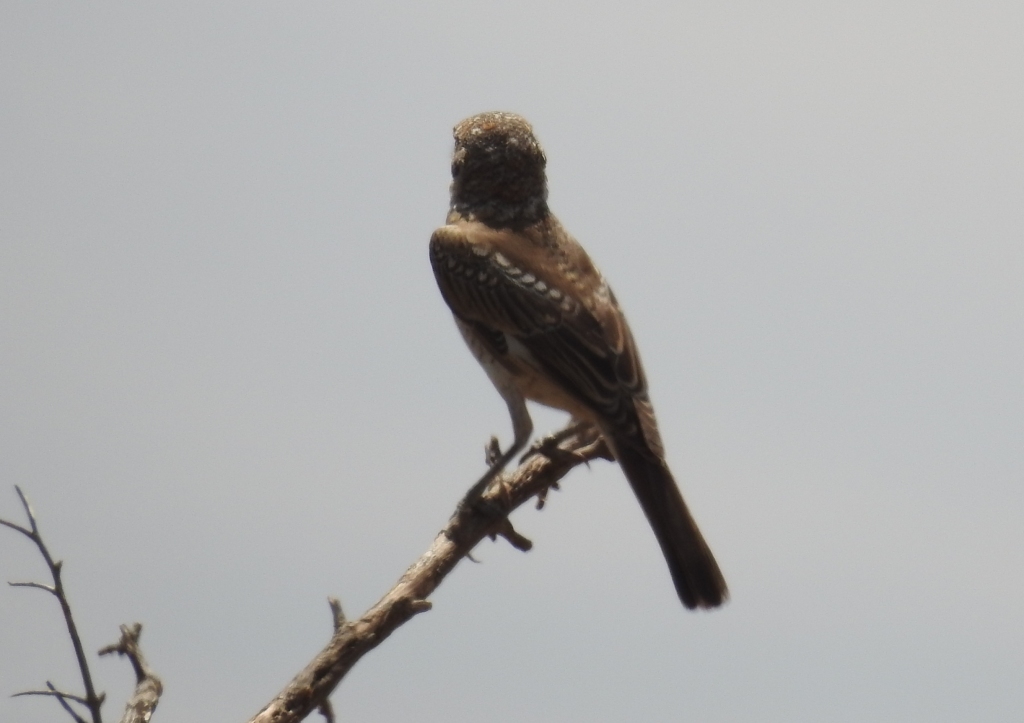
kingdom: Animalia
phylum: Chordata
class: Aves
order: Passeriformes
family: Laniidae
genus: Lanius
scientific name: Lanius senator
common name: Woodchat shrike
